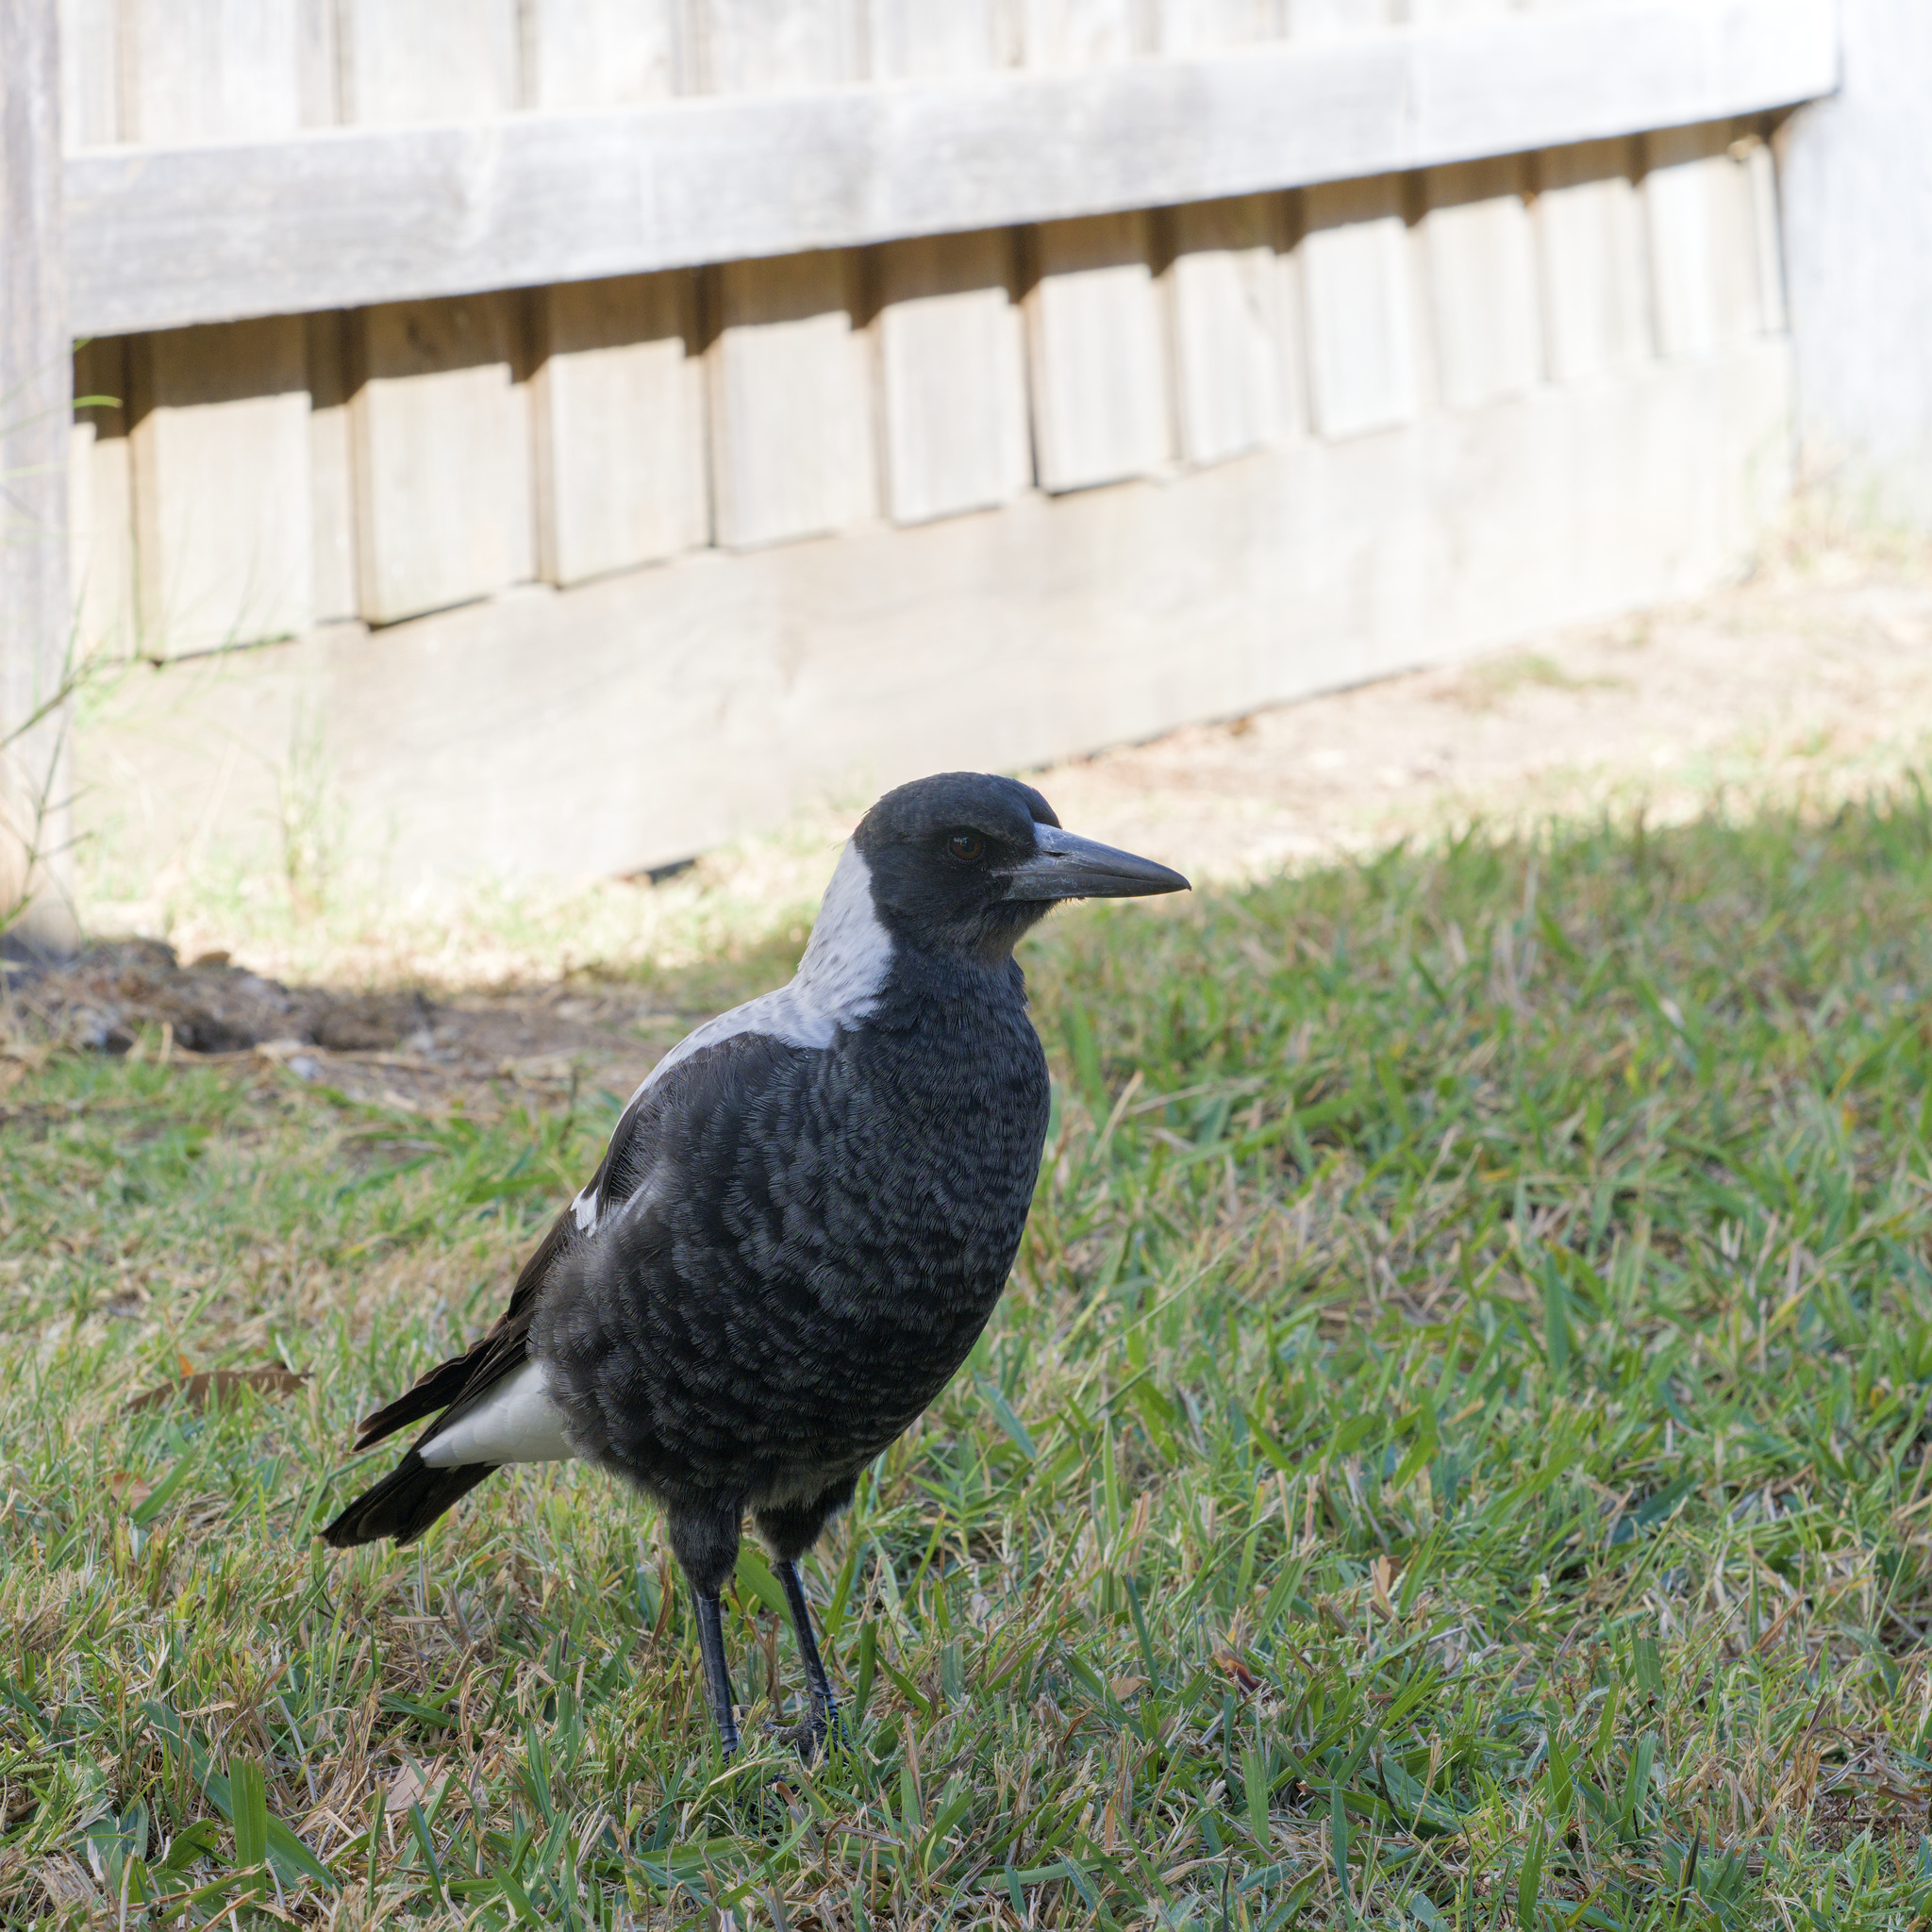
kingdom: Animalia
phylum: Chordata
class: Aves
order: Passeriformes
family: Cracticidae
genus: Gymnorhina
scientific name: Gymnorhina tibicen
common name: Australian magpie
